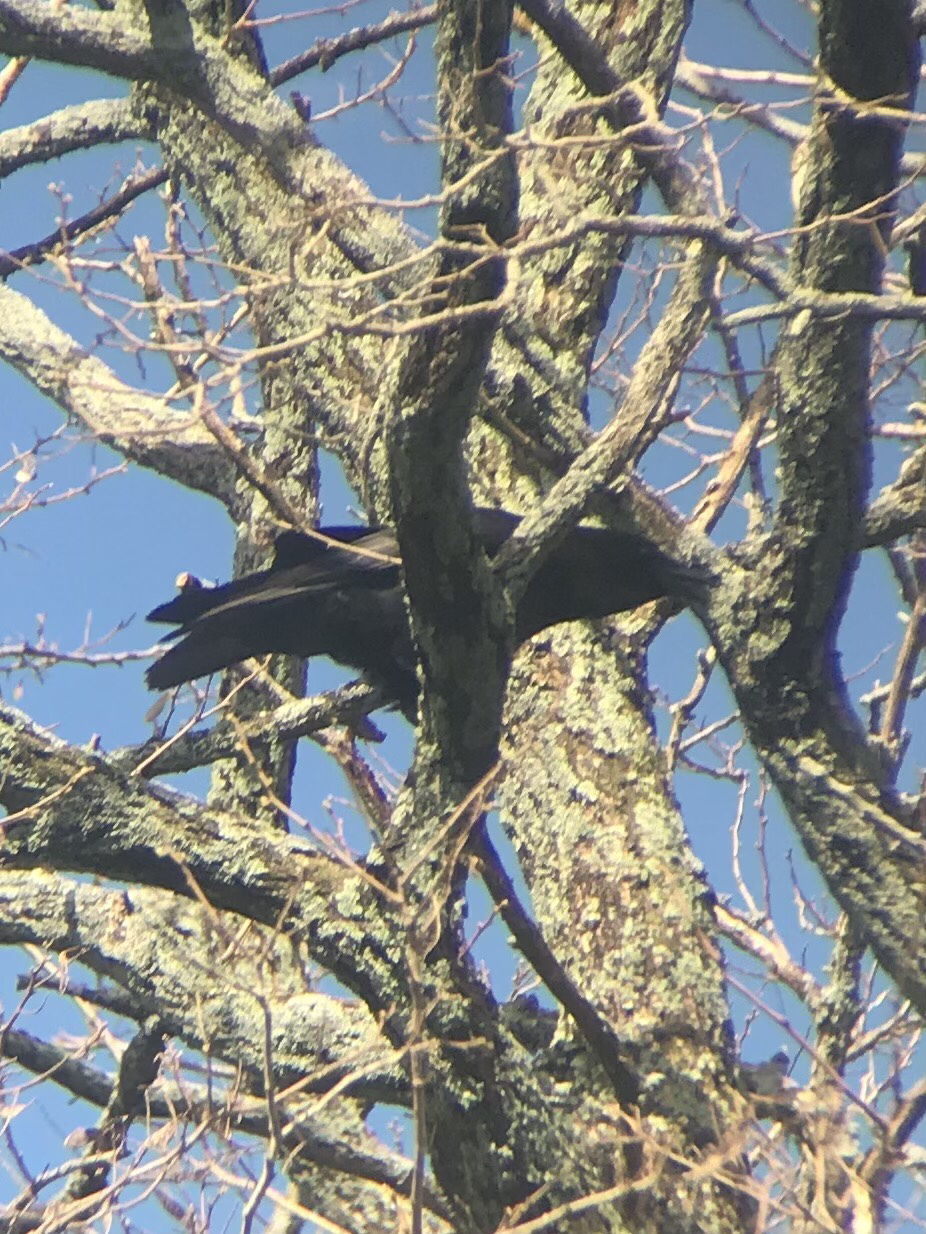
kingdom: Animalia
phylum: Chordata
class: Aves
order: Passeriformes
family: Corvidae
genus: Corvus
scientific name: Corvus brachyrhynchos
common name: American crow
